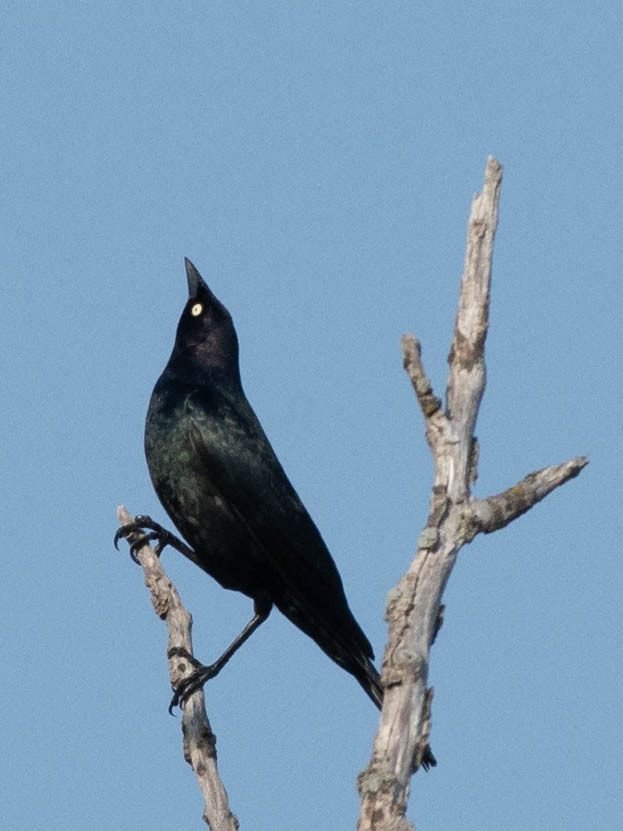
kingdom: Animalia
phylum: Chordata
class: Aves
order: Passeriformes
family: Icteridae
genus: Euphagus
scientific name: Euphagus cyanocephalus
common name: Brewer's blackbird
